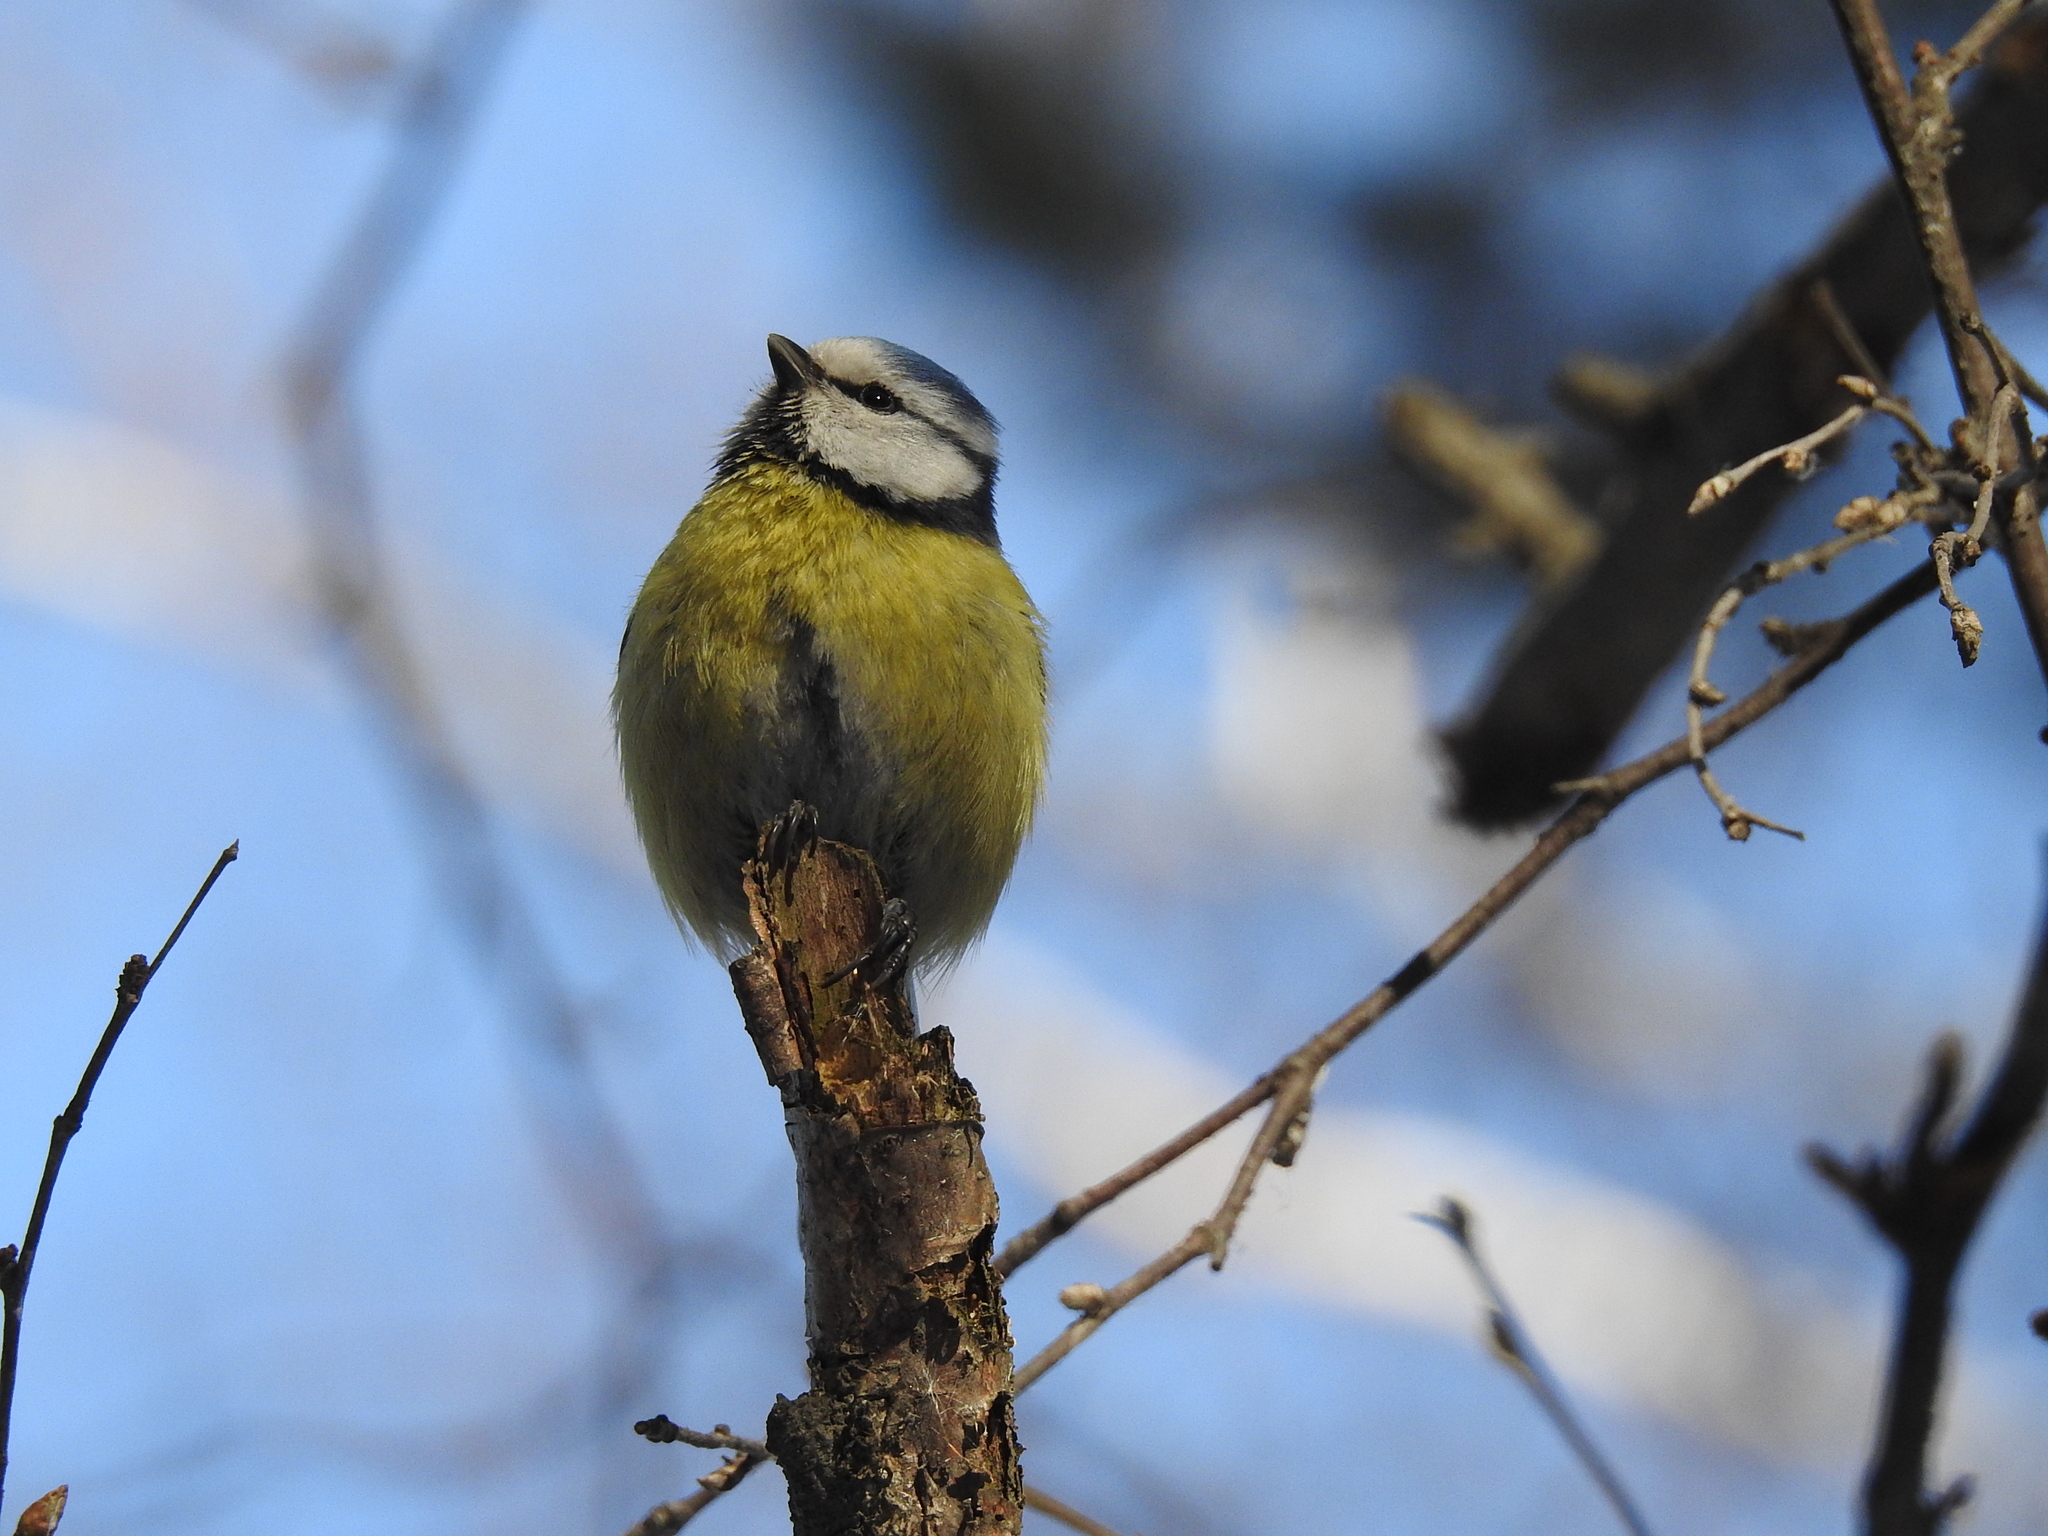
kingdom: Animalia
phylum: Chordata
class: Aves
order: Passeriformes
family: Paridae
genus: Cyanistes
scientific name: Cyanistes caeruleus
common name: Eurasian blue tit
